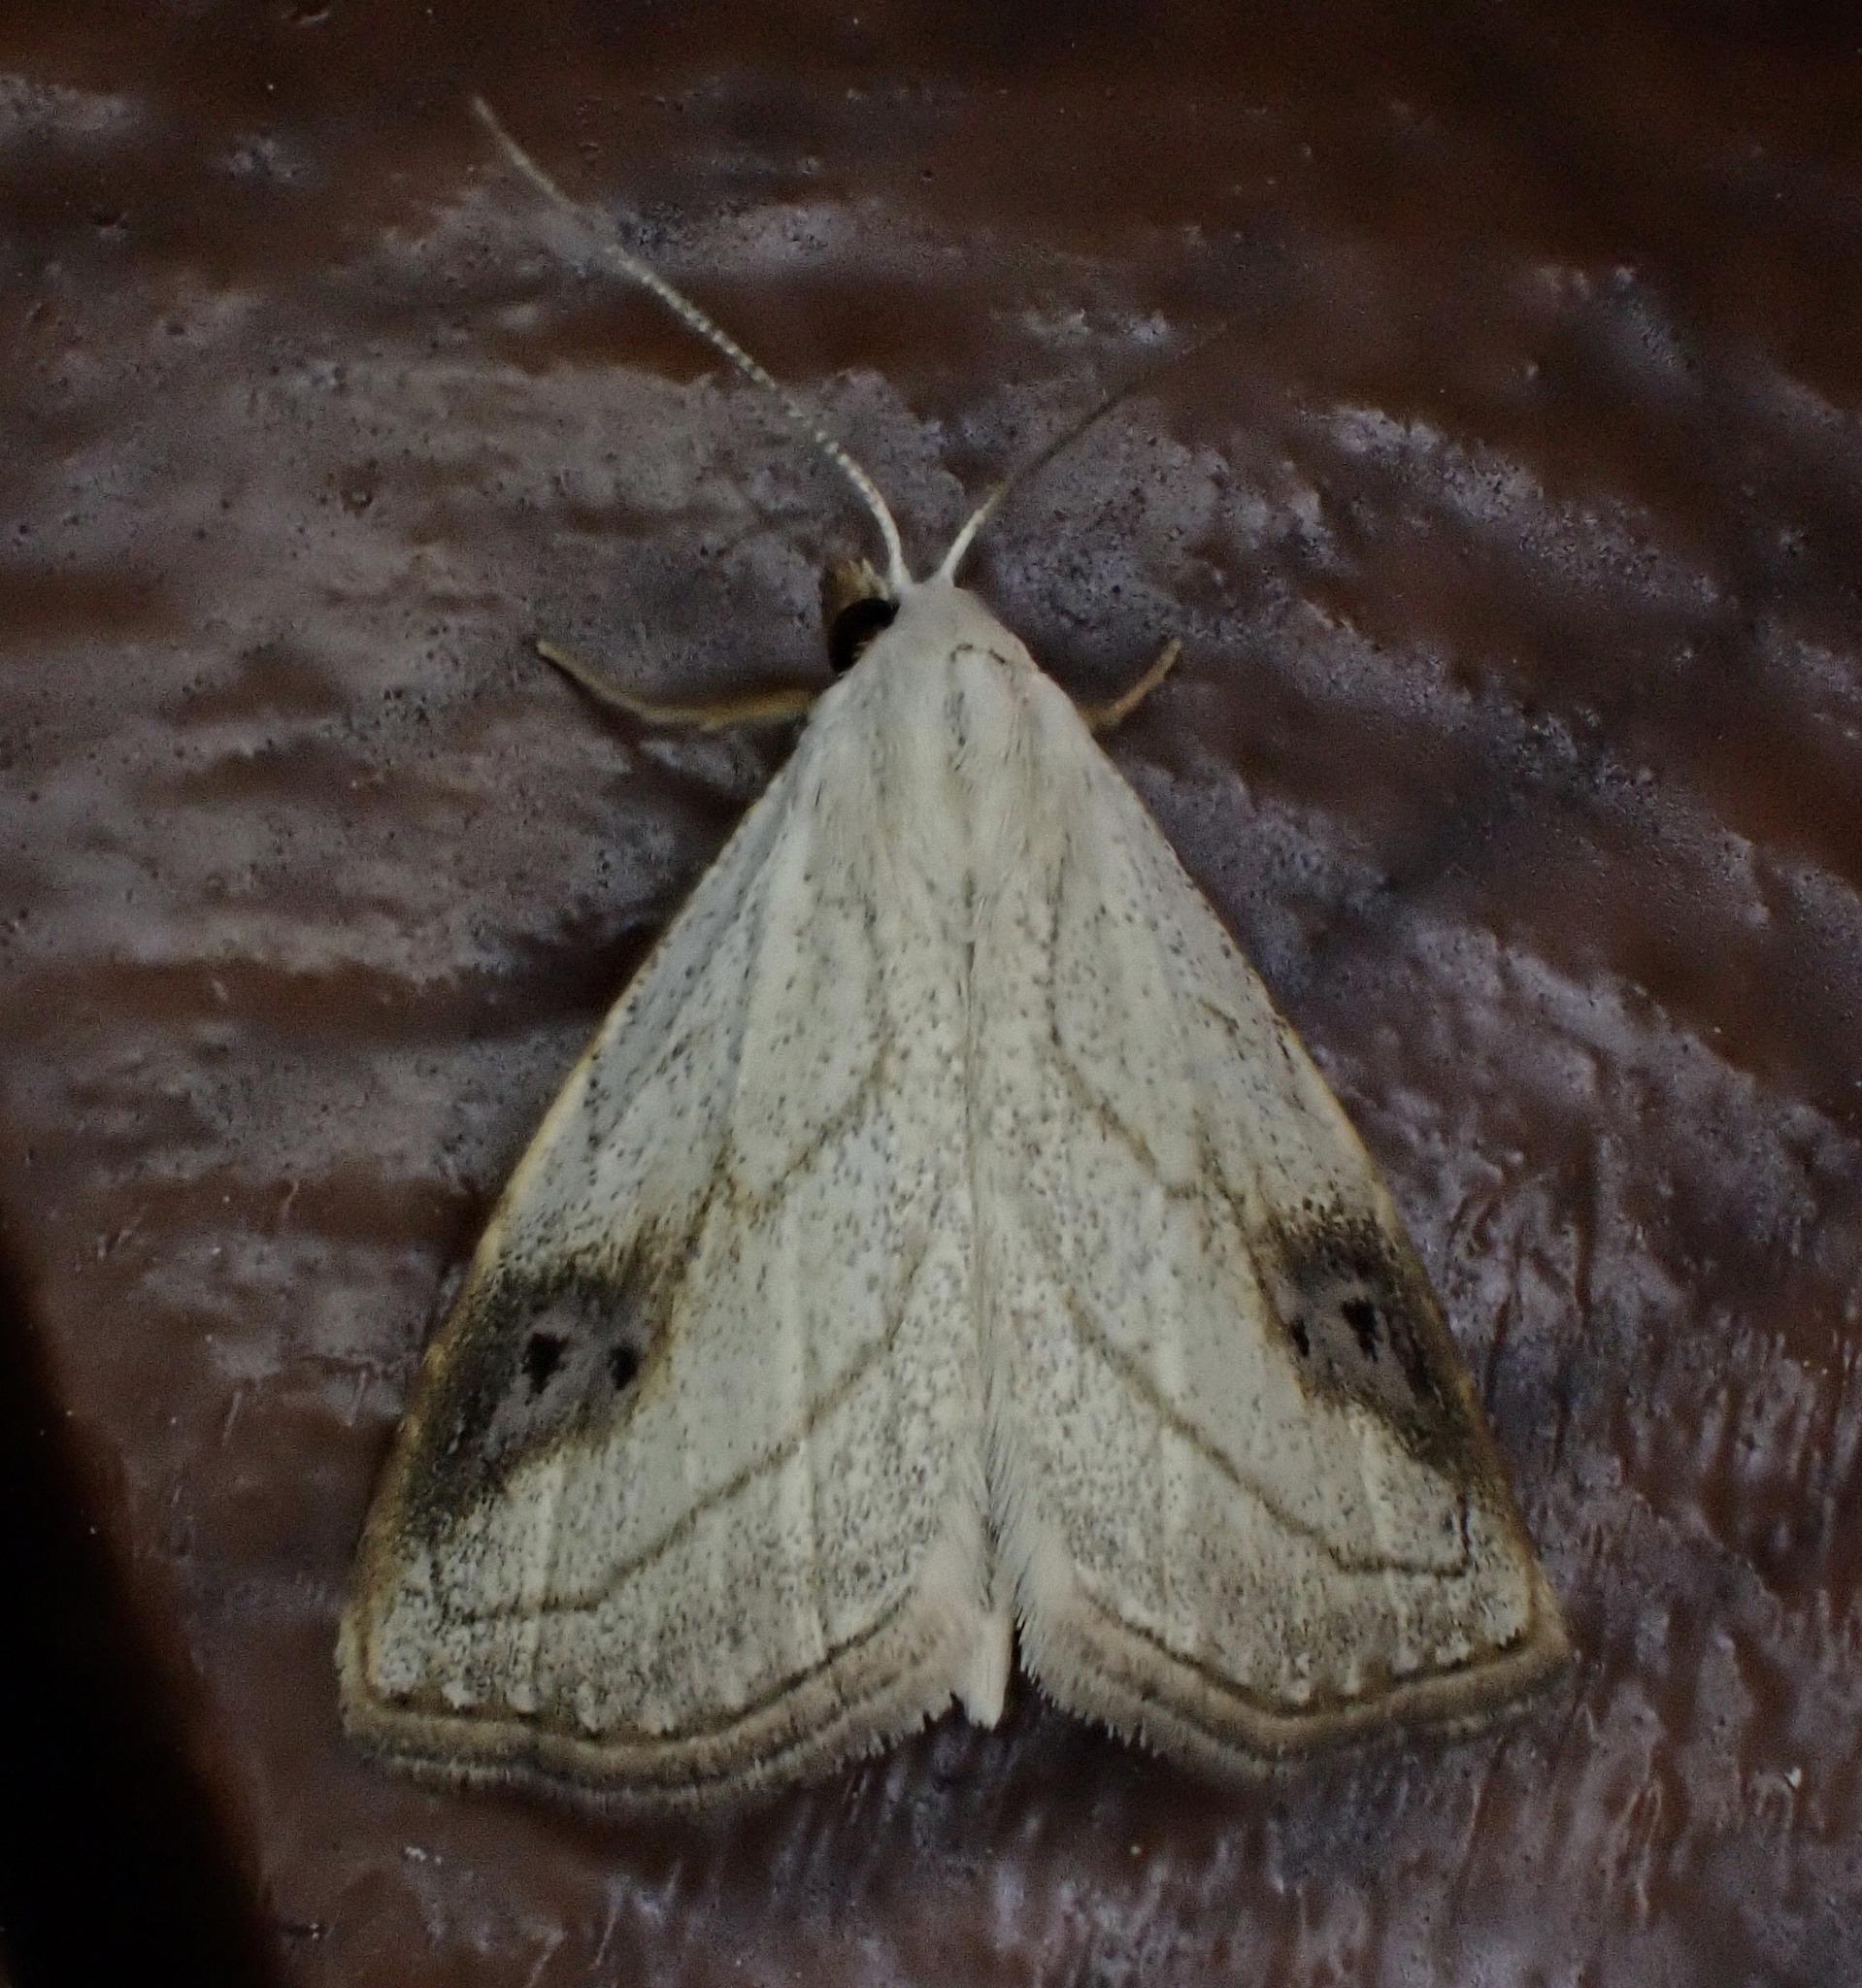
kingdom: Animalia
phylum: Arthropoda
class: Insecta
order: Lepidoptera
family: Erebidae
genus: Rivula
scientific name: Rivula propinqualis
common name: Spotted grass moth
